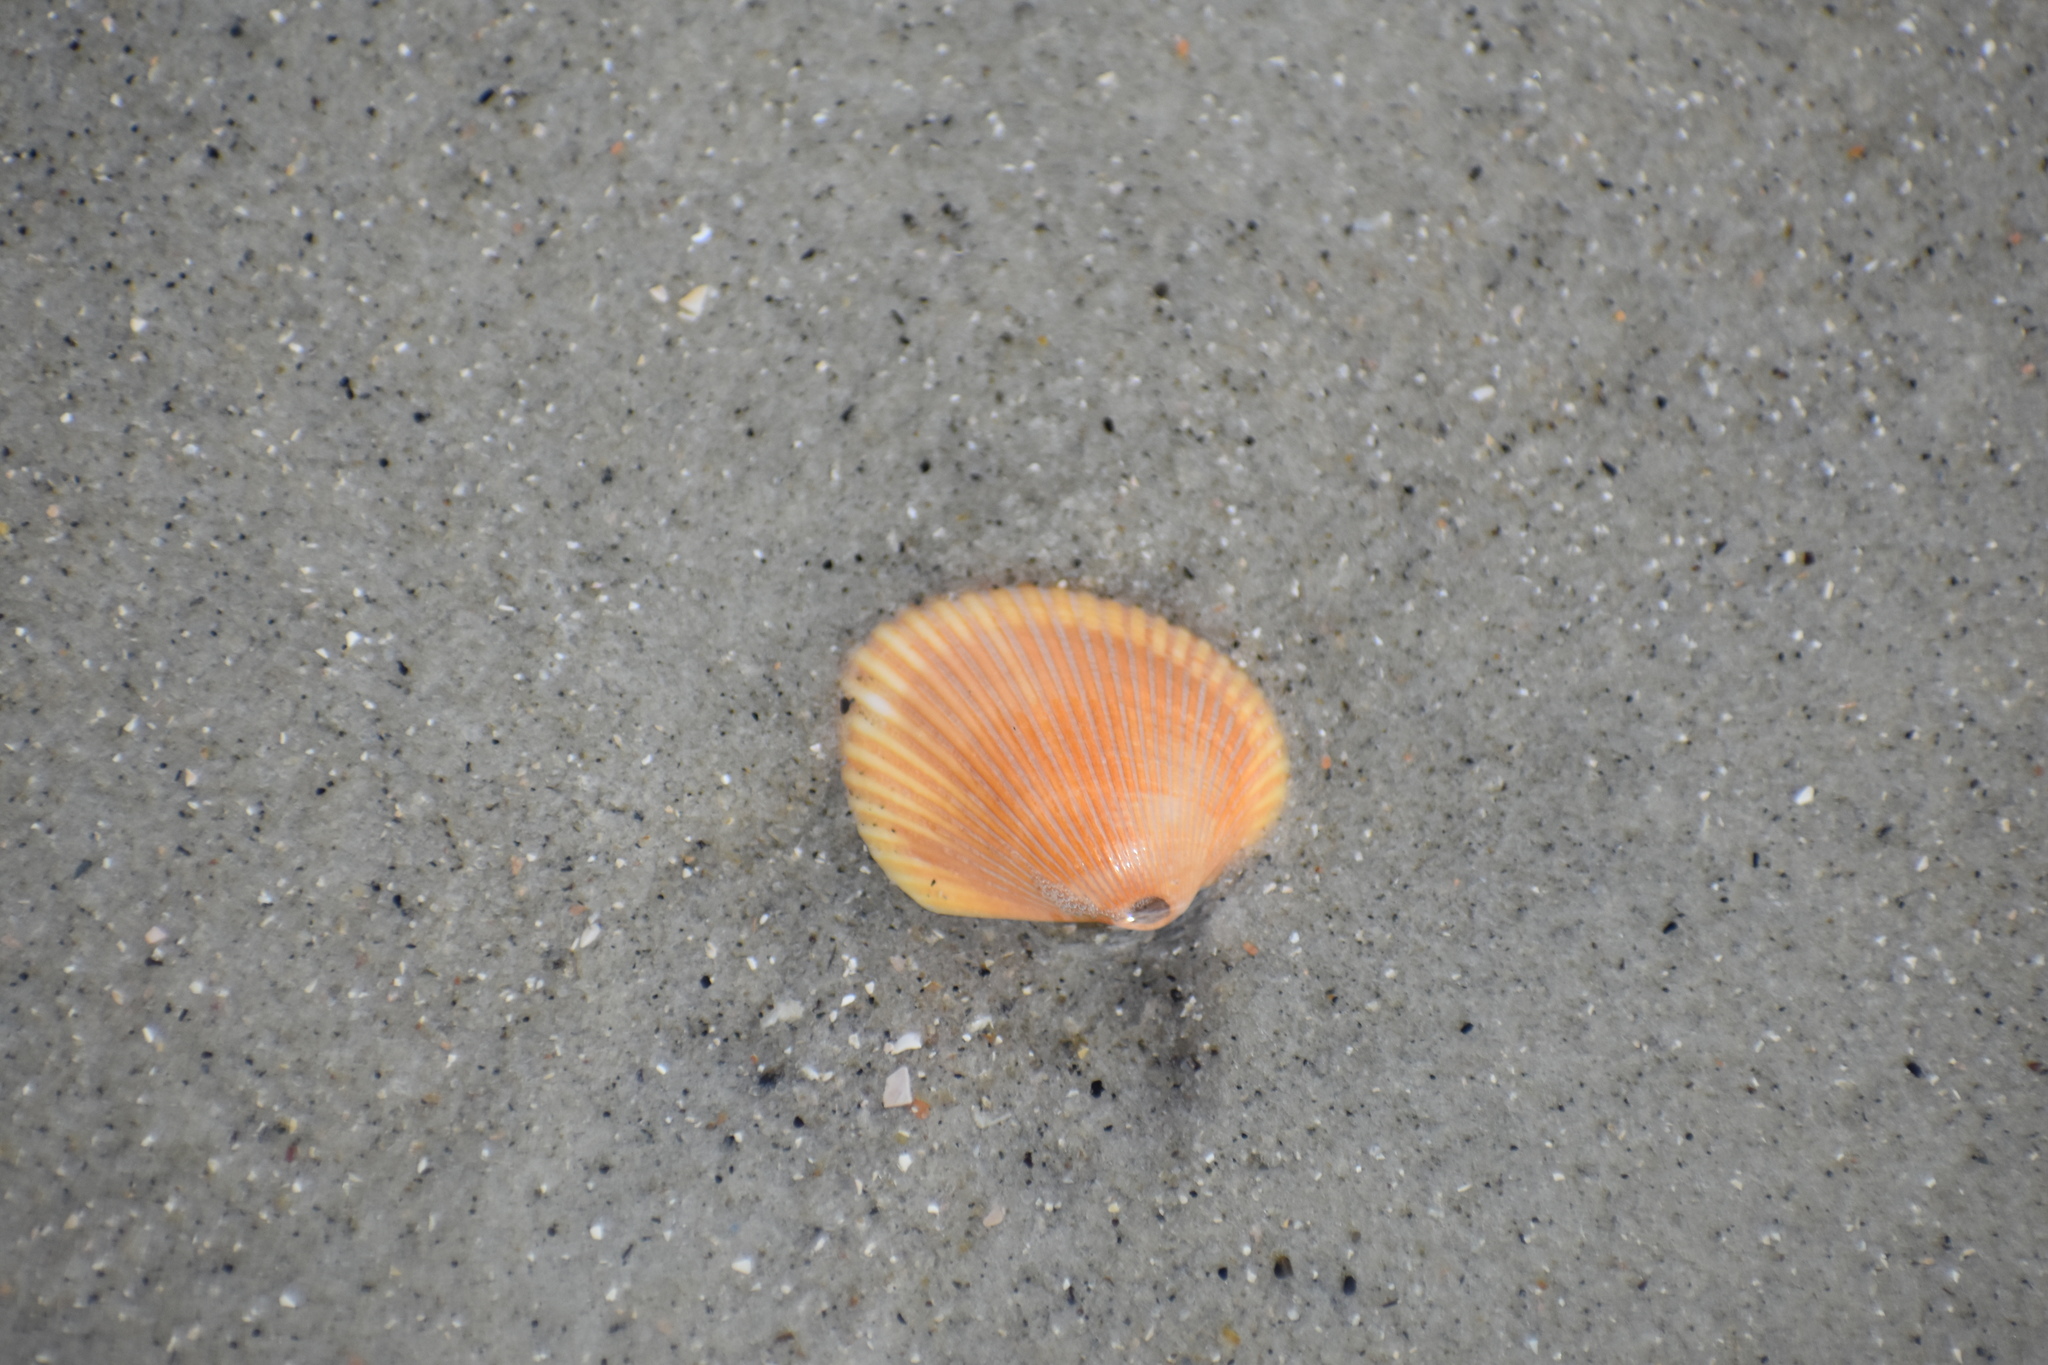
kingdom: Animalia
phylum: Mollusca
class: Bivalvia
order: Arcida
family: Arcidae
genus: Lunarca
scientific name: Lunarca ovalis
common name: Blood ark
